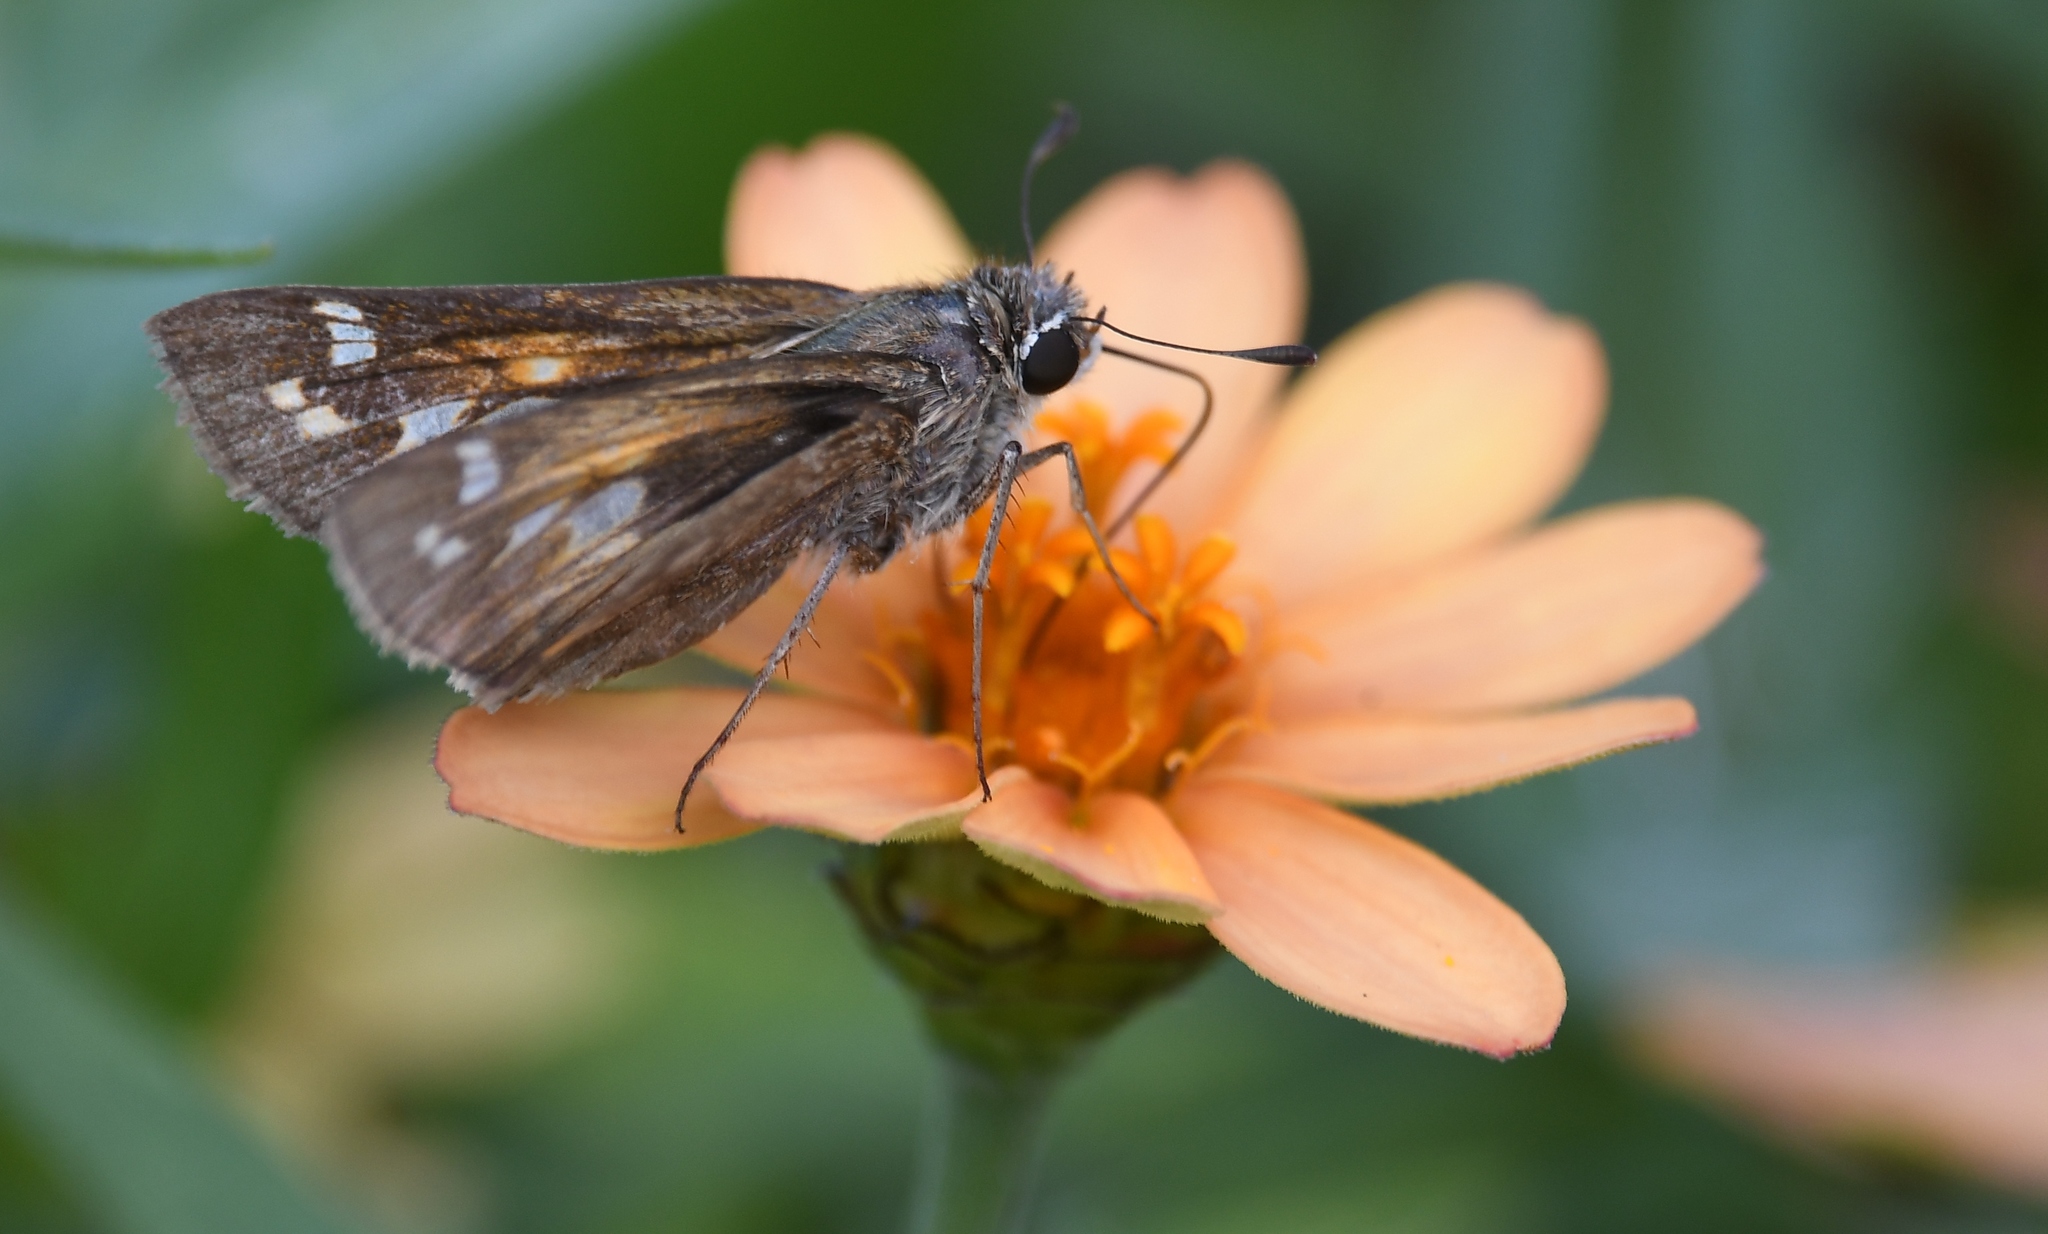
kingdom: Animalia
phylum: Arthropoda
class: Insecta
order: Lepidoptera
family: Hesperiidae
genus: Atalopedes
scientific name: Atalopedes
